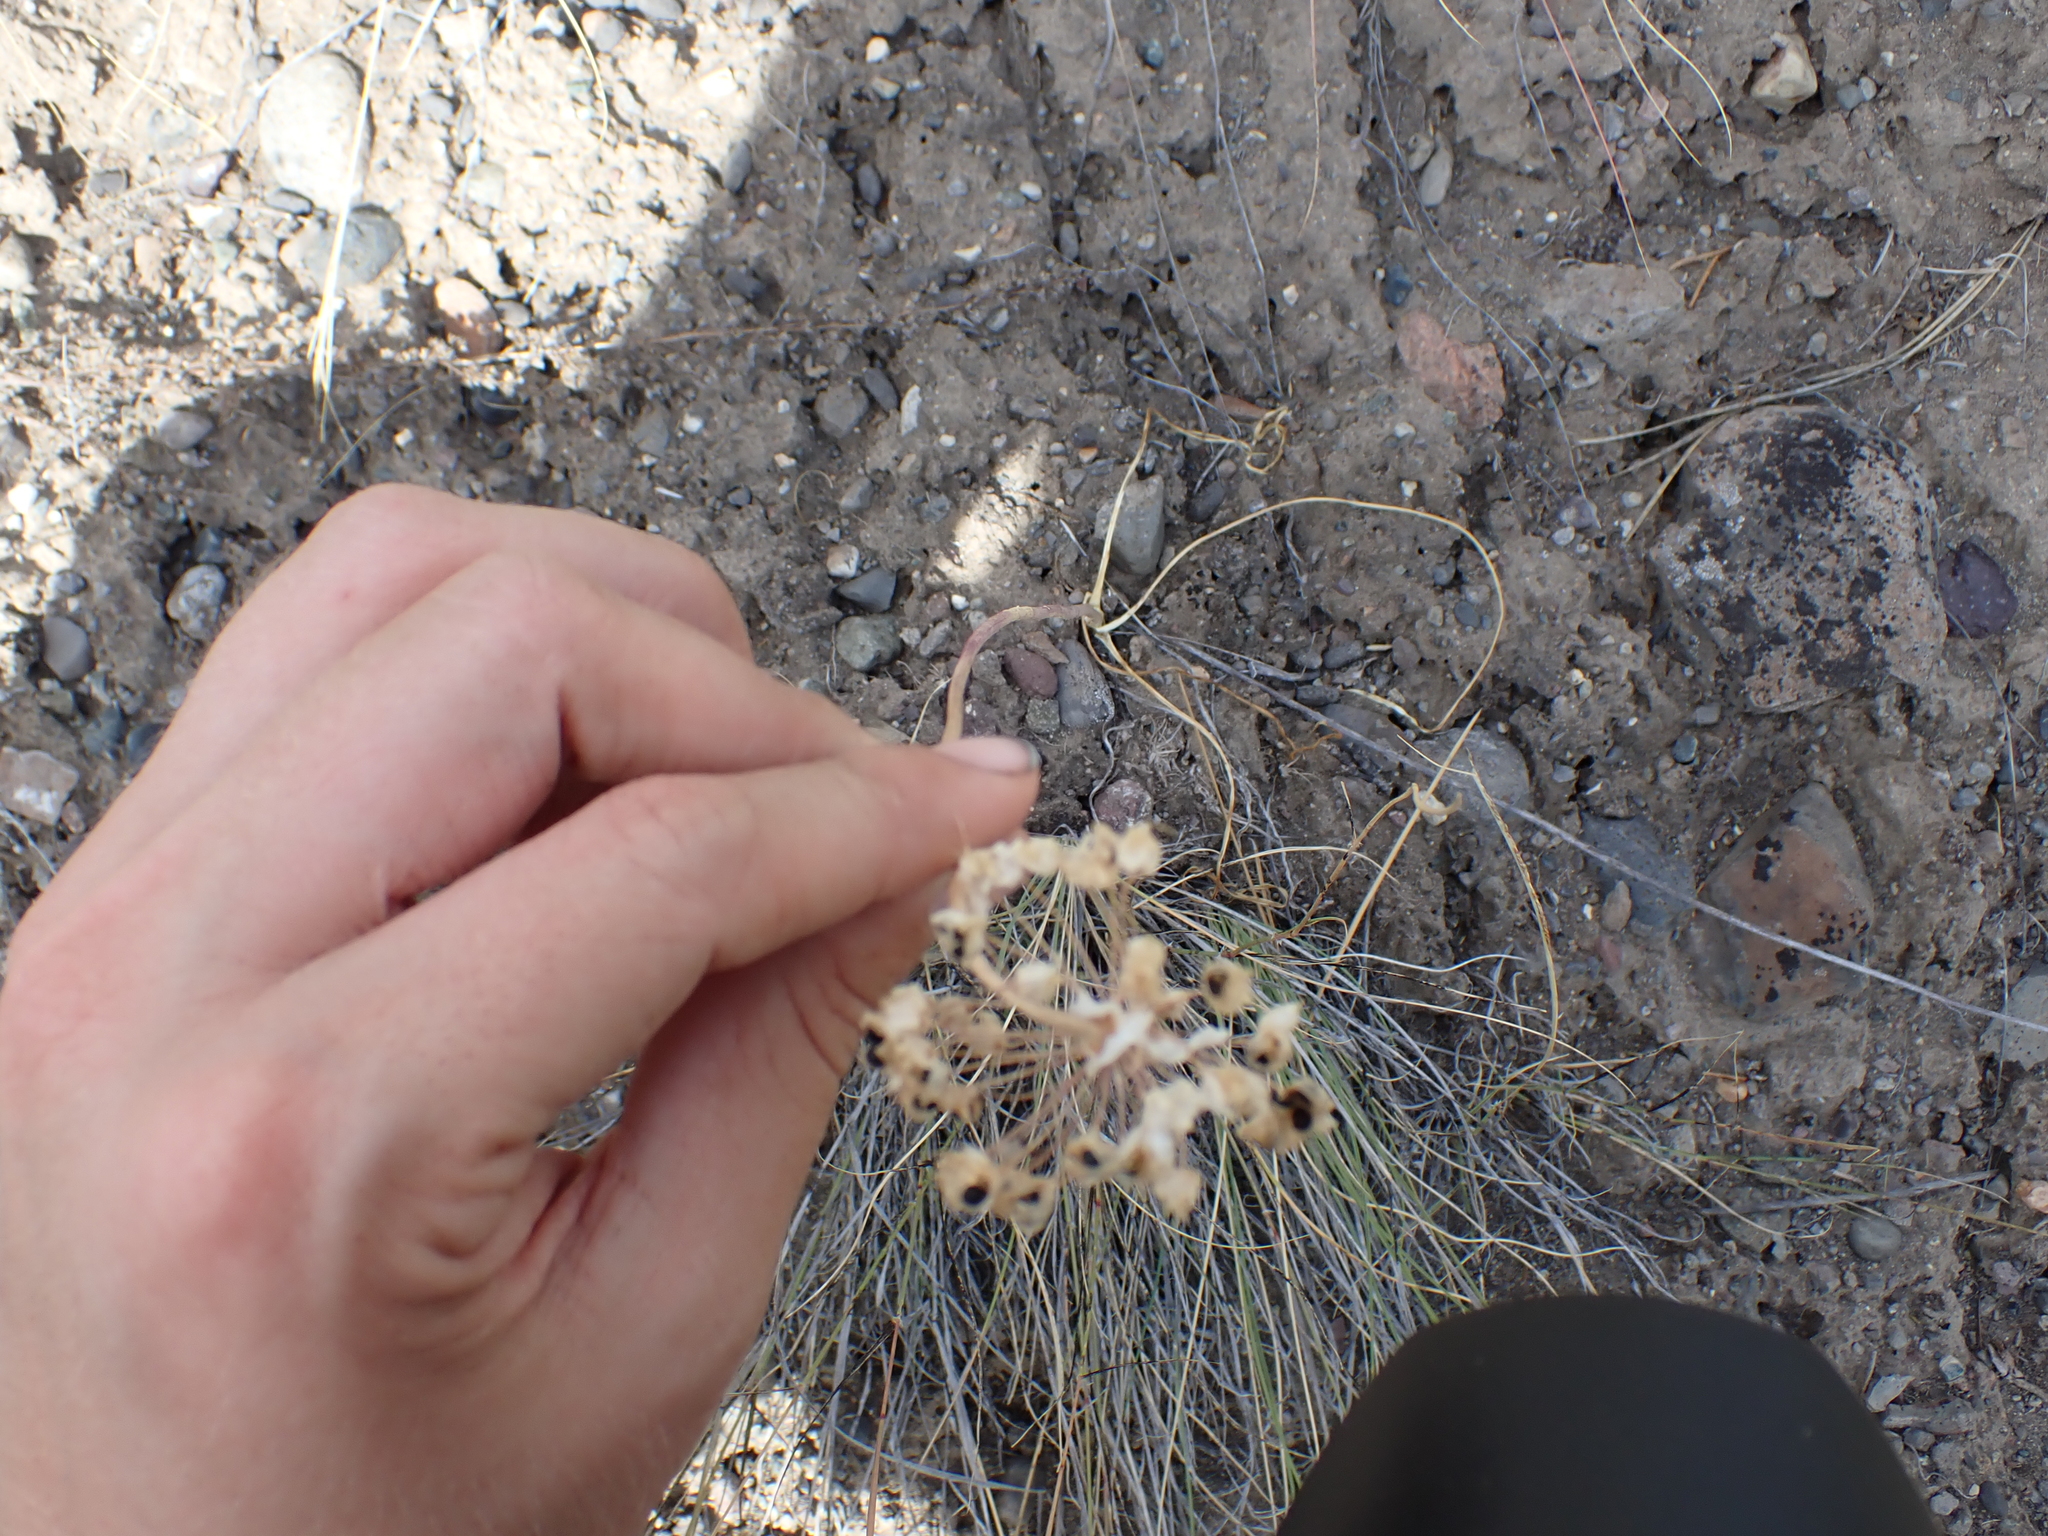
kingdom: Plantae
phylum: Tracheophyta
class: Liliopsida
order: Asparagales
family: Amaryllidaceae
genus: Allium
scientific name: Allium cernuum
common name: Nodding onion
